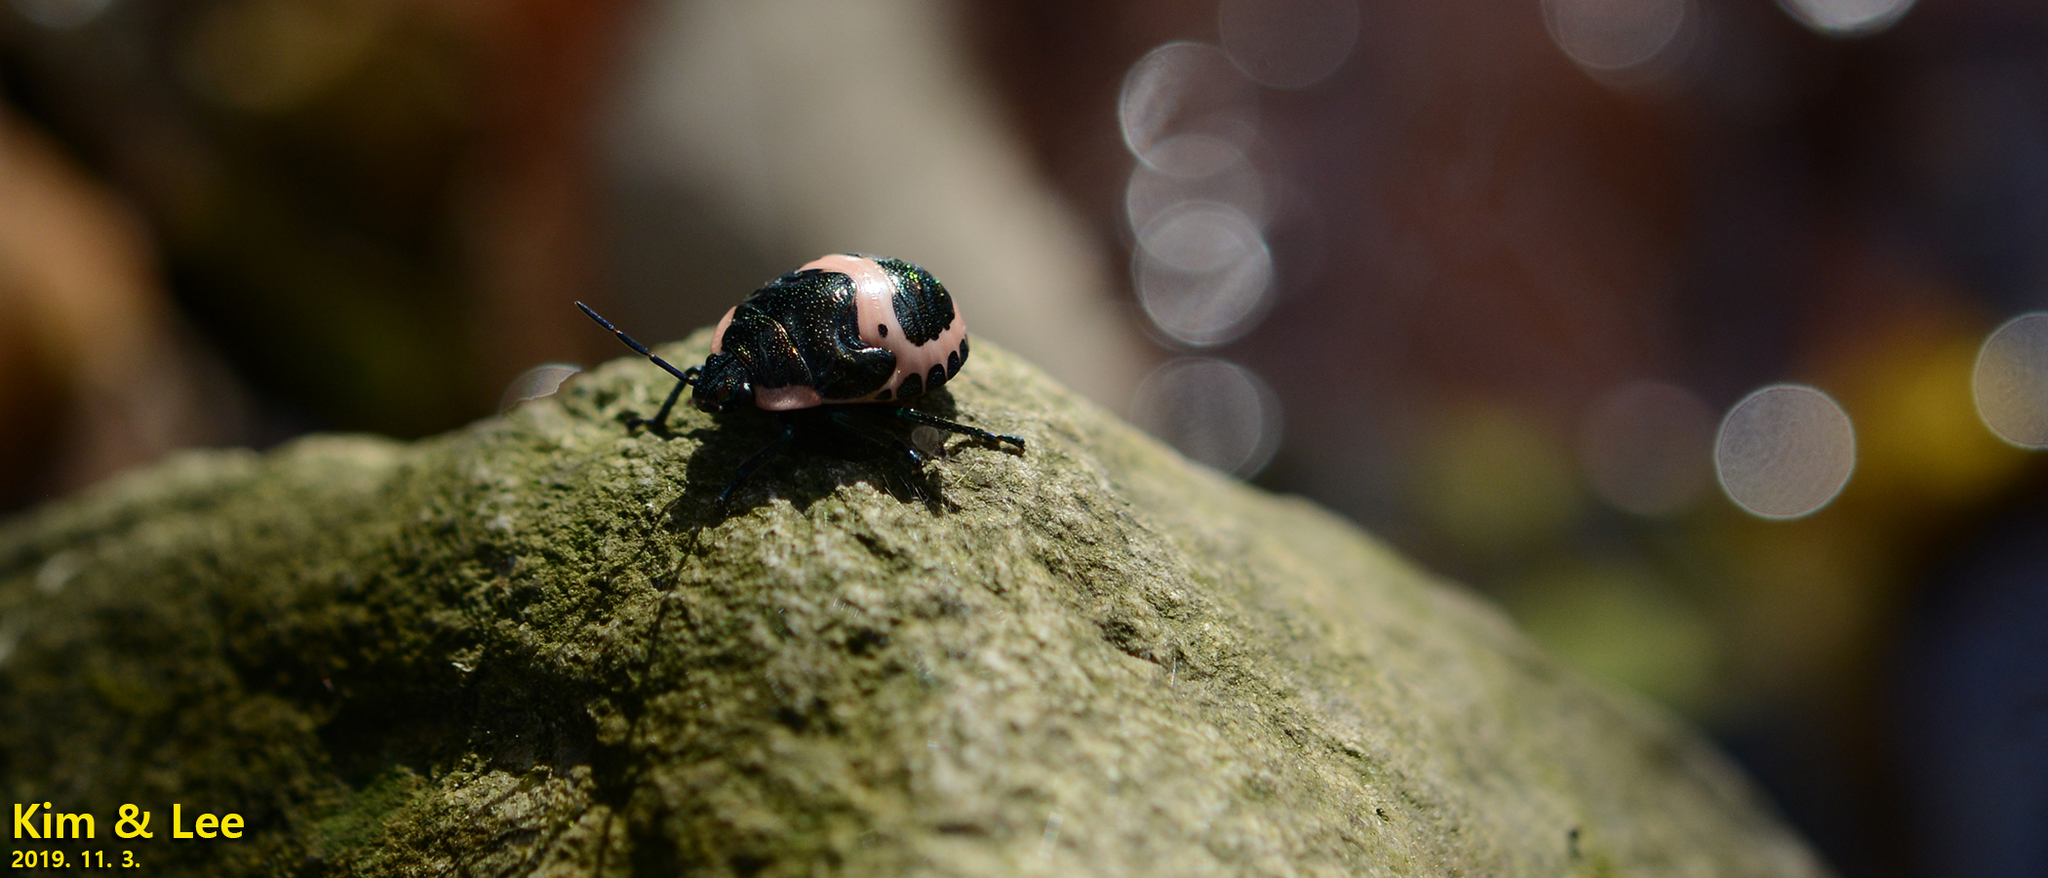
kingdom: Animalia
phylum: Arthropoda
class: Insecta
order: Hemiptera
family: Scutelleridae
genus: Poecilocoris
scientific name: Poecilocoris lewisi
